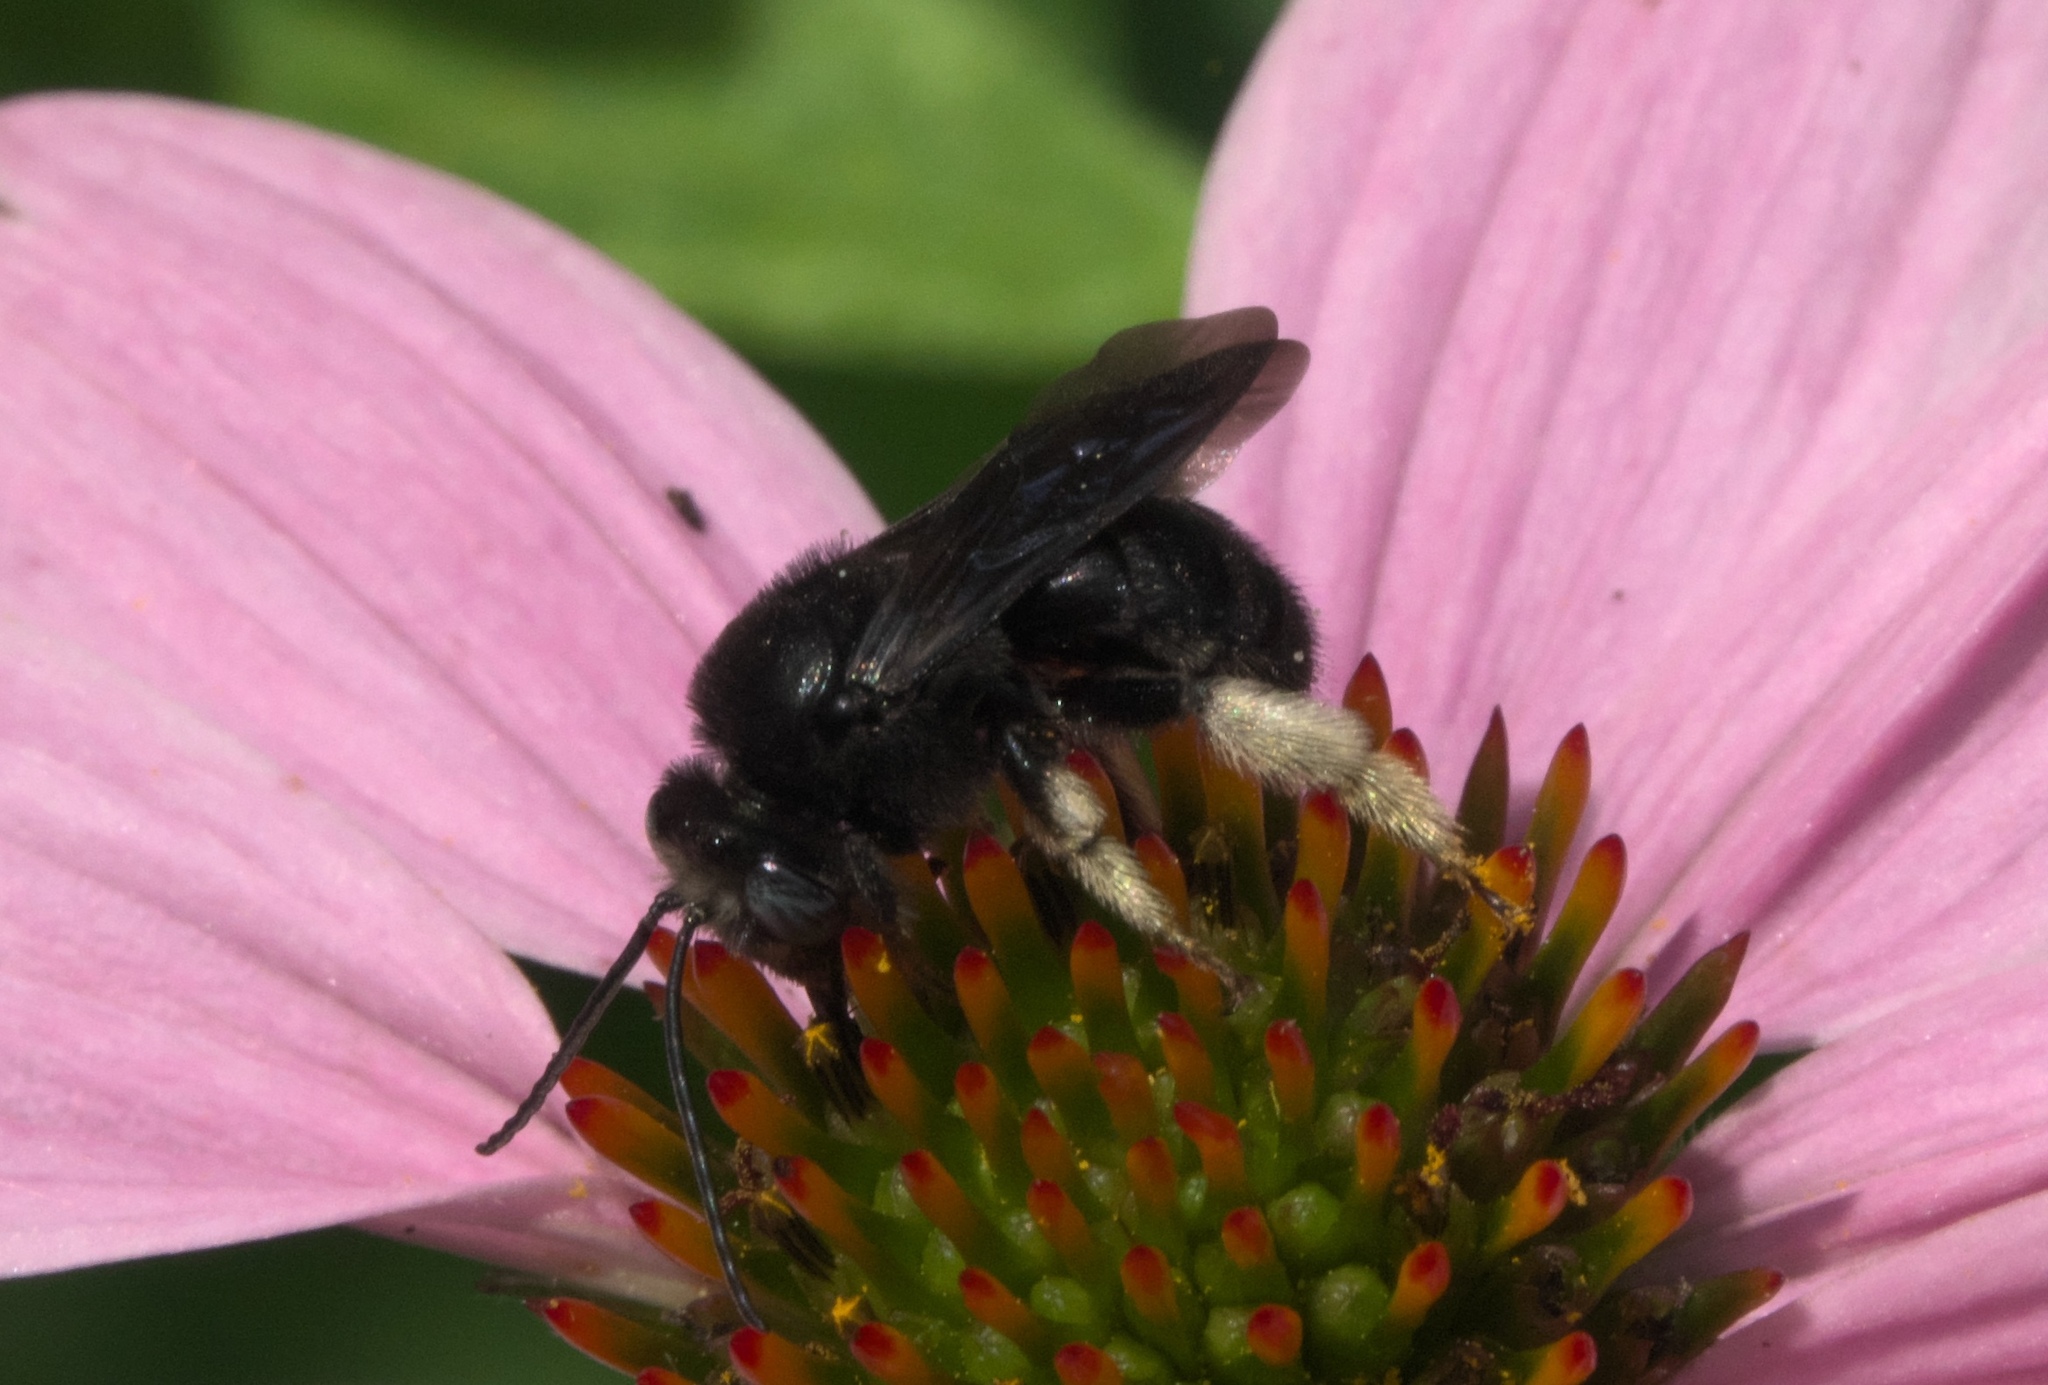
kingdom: Animalia
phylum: Arthropoda
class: Insecta
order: Hymenoptera
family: Apidae
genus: Melissodes
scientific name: Melissodes bimaculatus
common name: Two-spotted long-horned bee
